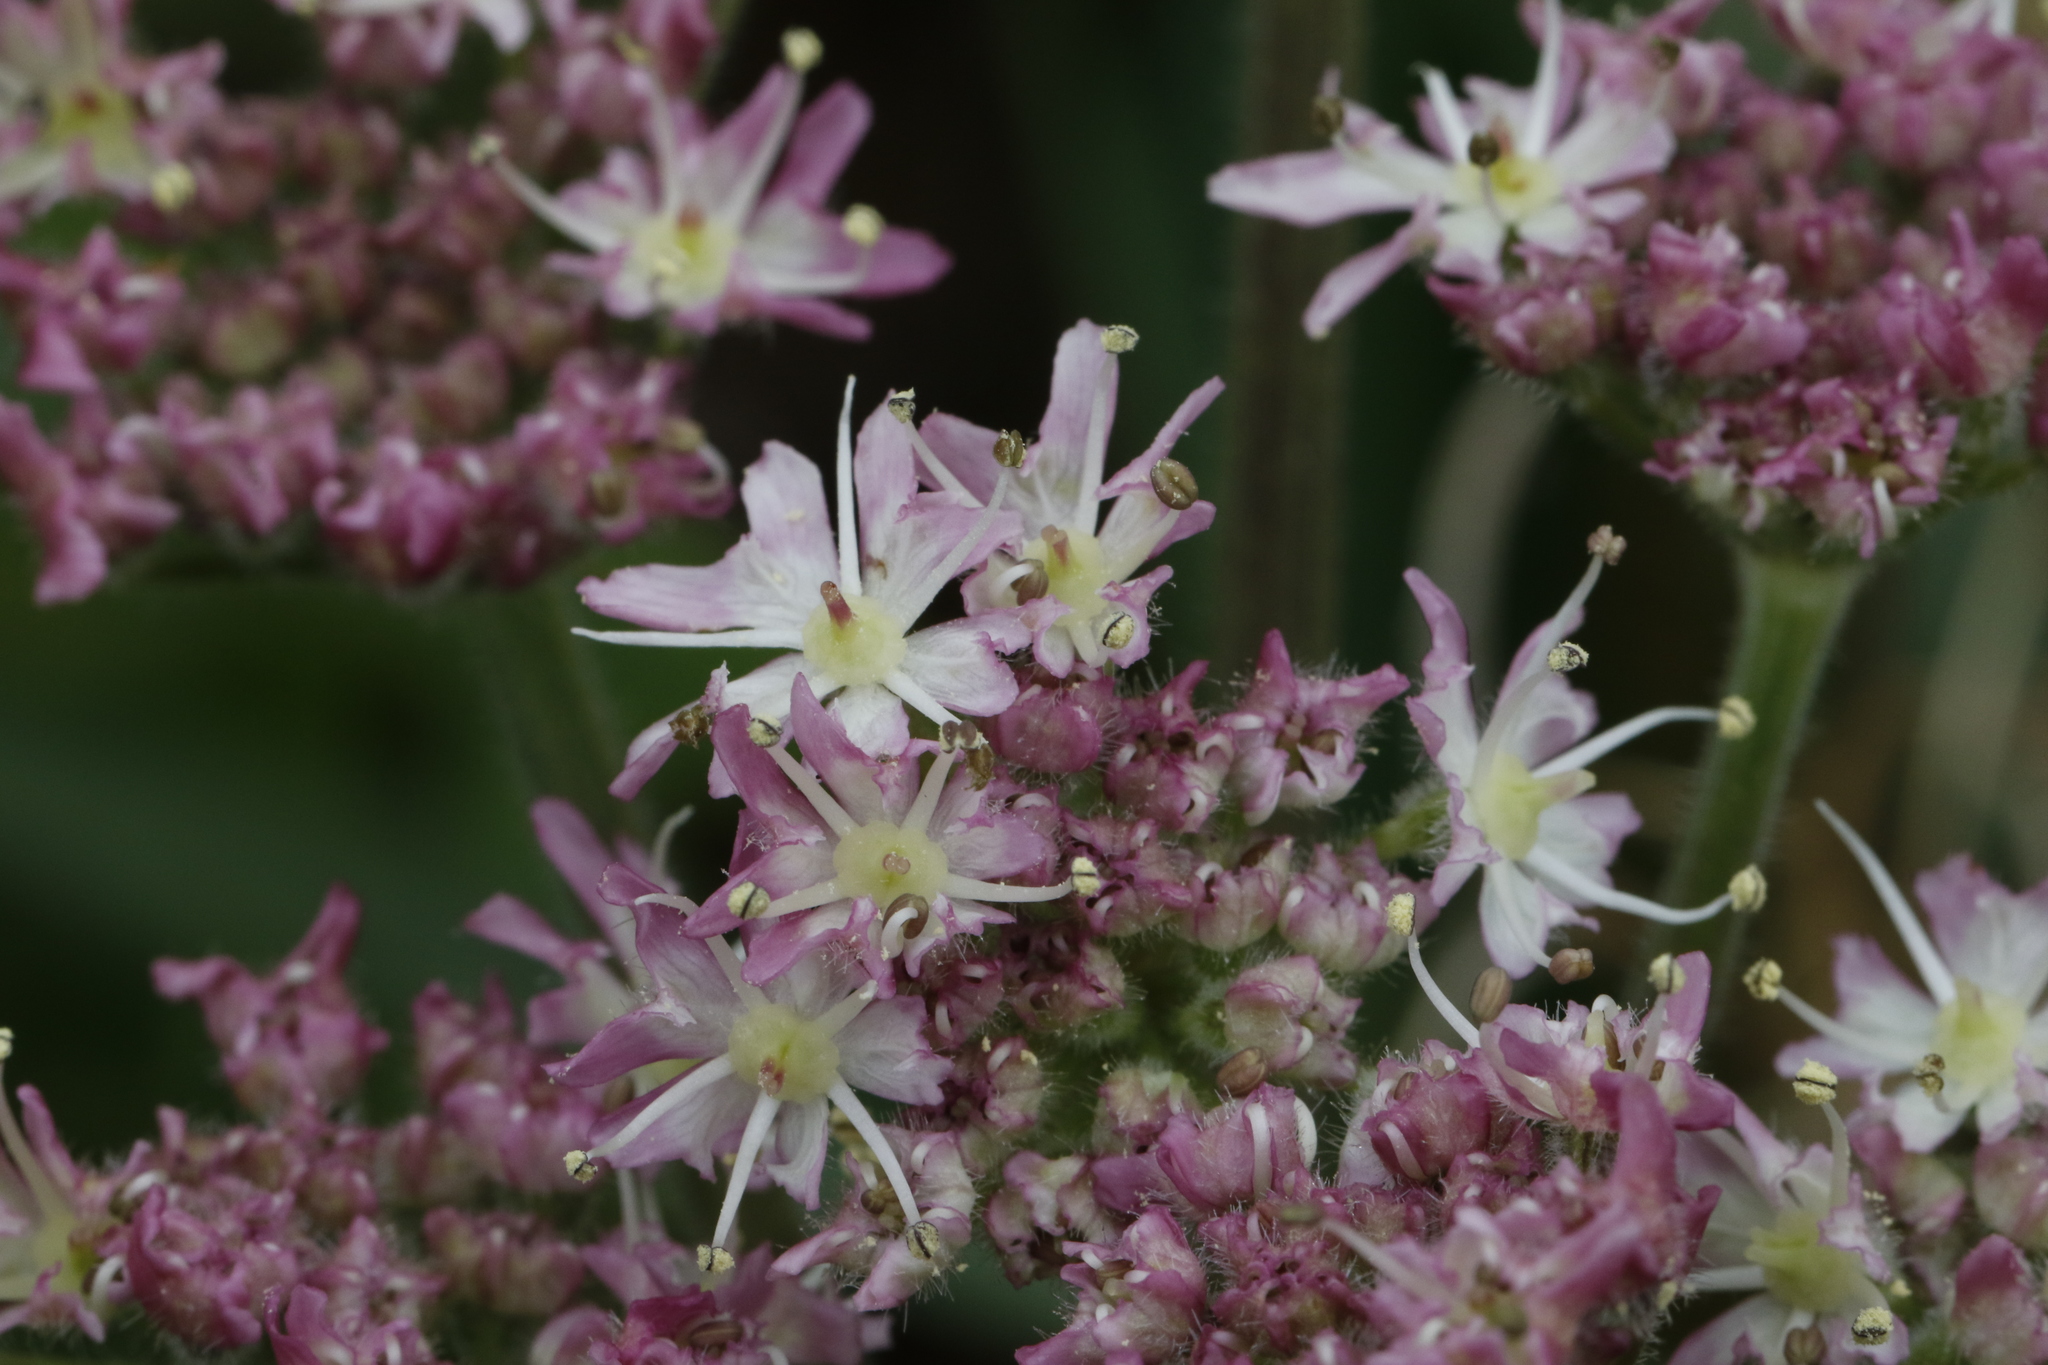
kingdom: Plantae
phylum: Tracheophyta
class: Magnoliopsida
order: Apiales
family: Apiaceae
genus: Heracleum
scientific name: Heracleum sphondylium
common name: Hogweed
